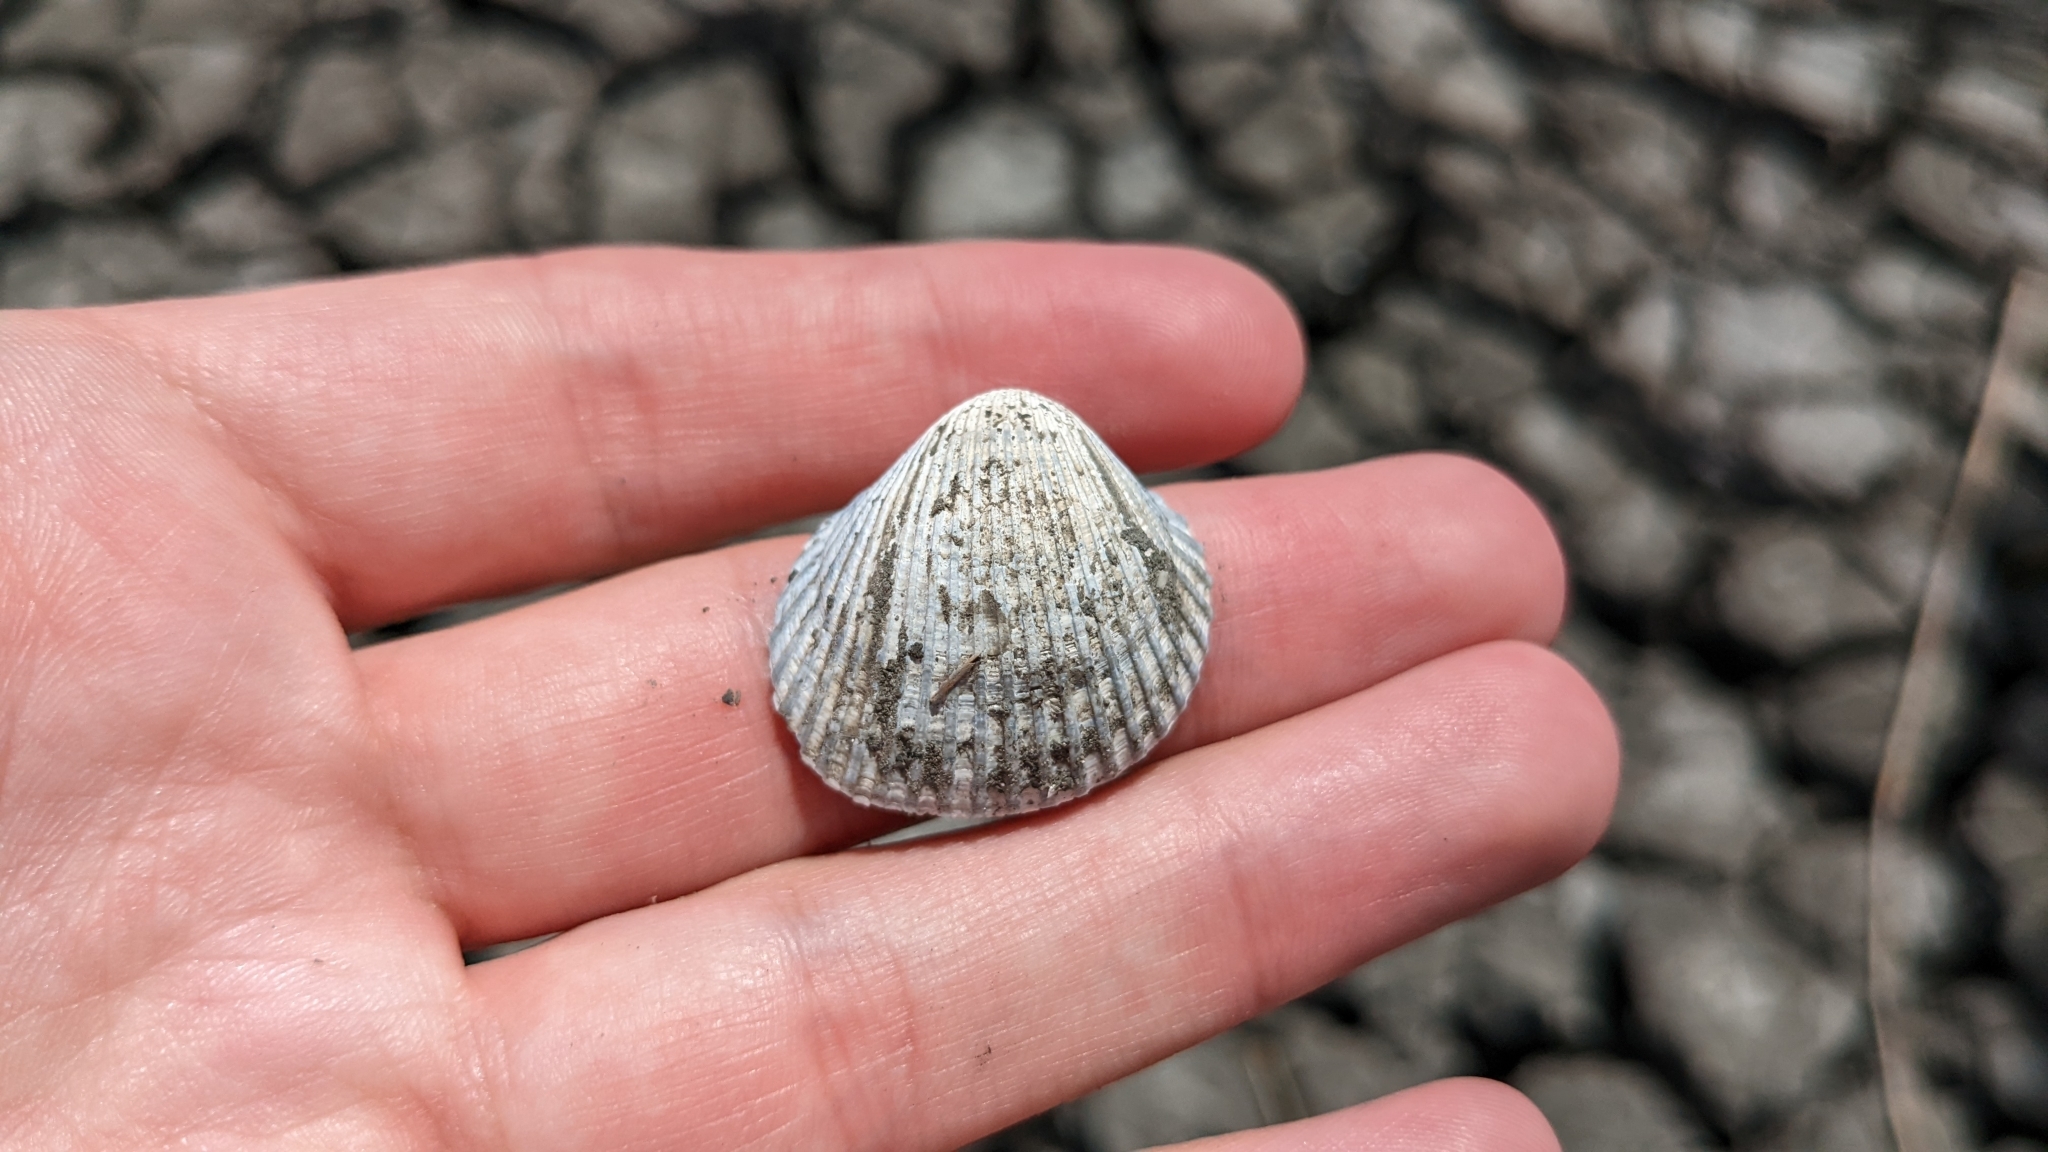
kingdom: Animalia
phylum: Mollusca
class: Bivalvia
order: Arcida
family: Arcidae
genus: Lunarca
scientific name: Lunarca ovalis
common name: Blood ark
